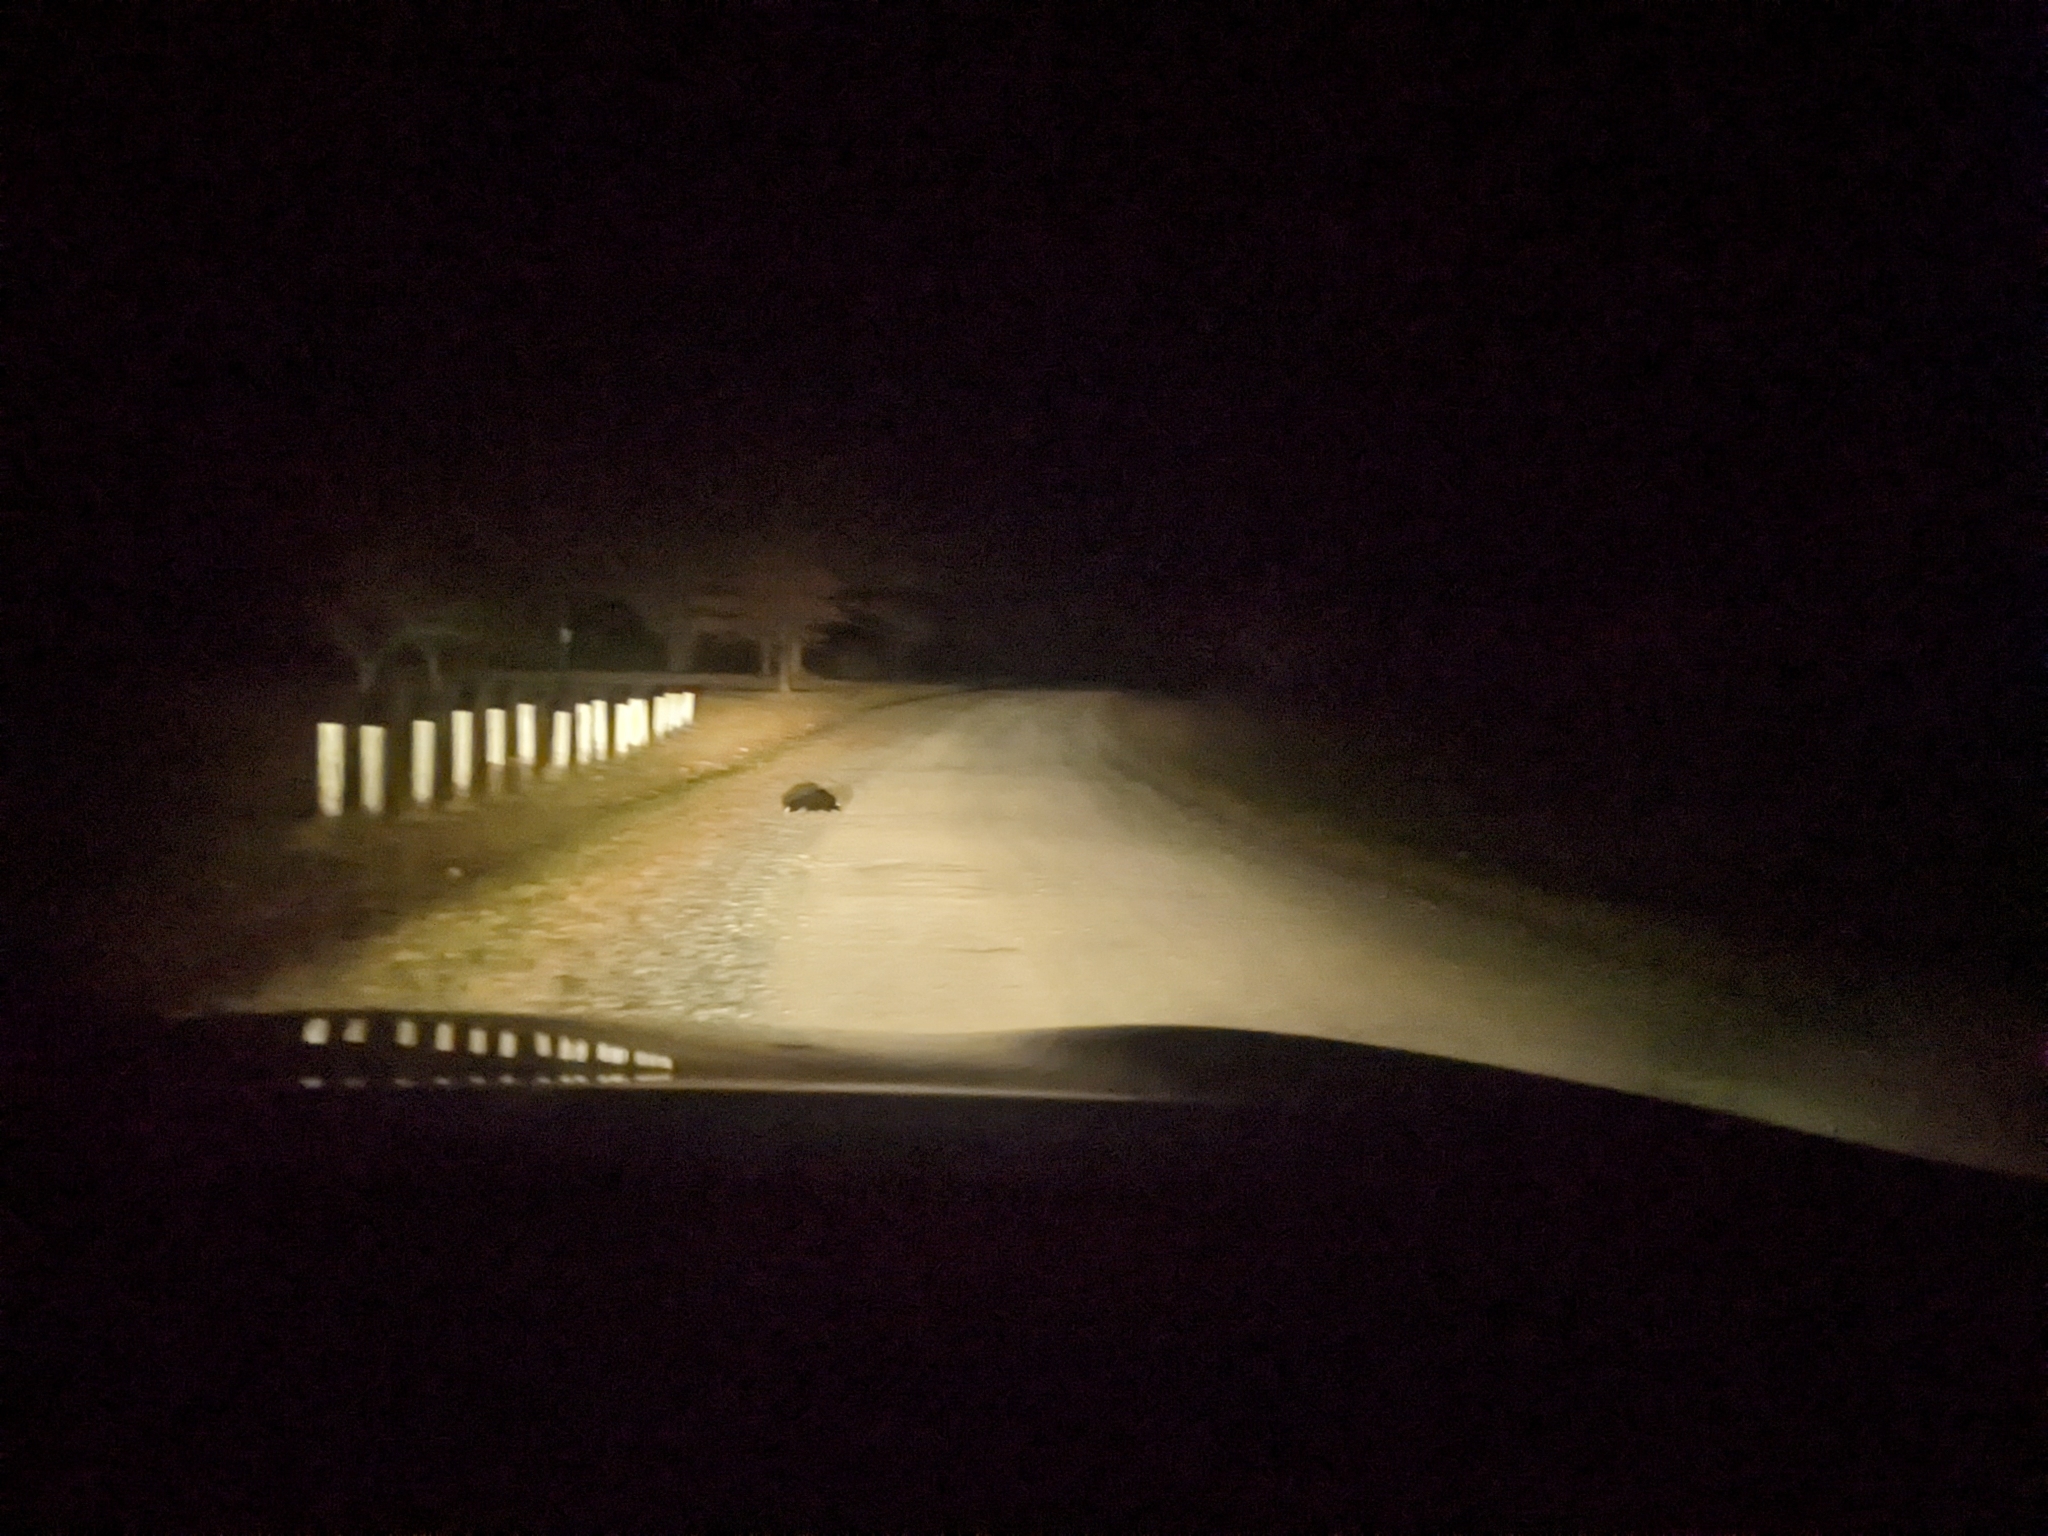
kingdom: Animalia
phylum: Chordata
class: Mammalia
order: Carnivora
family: Mephitidae
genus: Mephitis
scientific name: Mephitis mephitis
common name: Striped skunk
